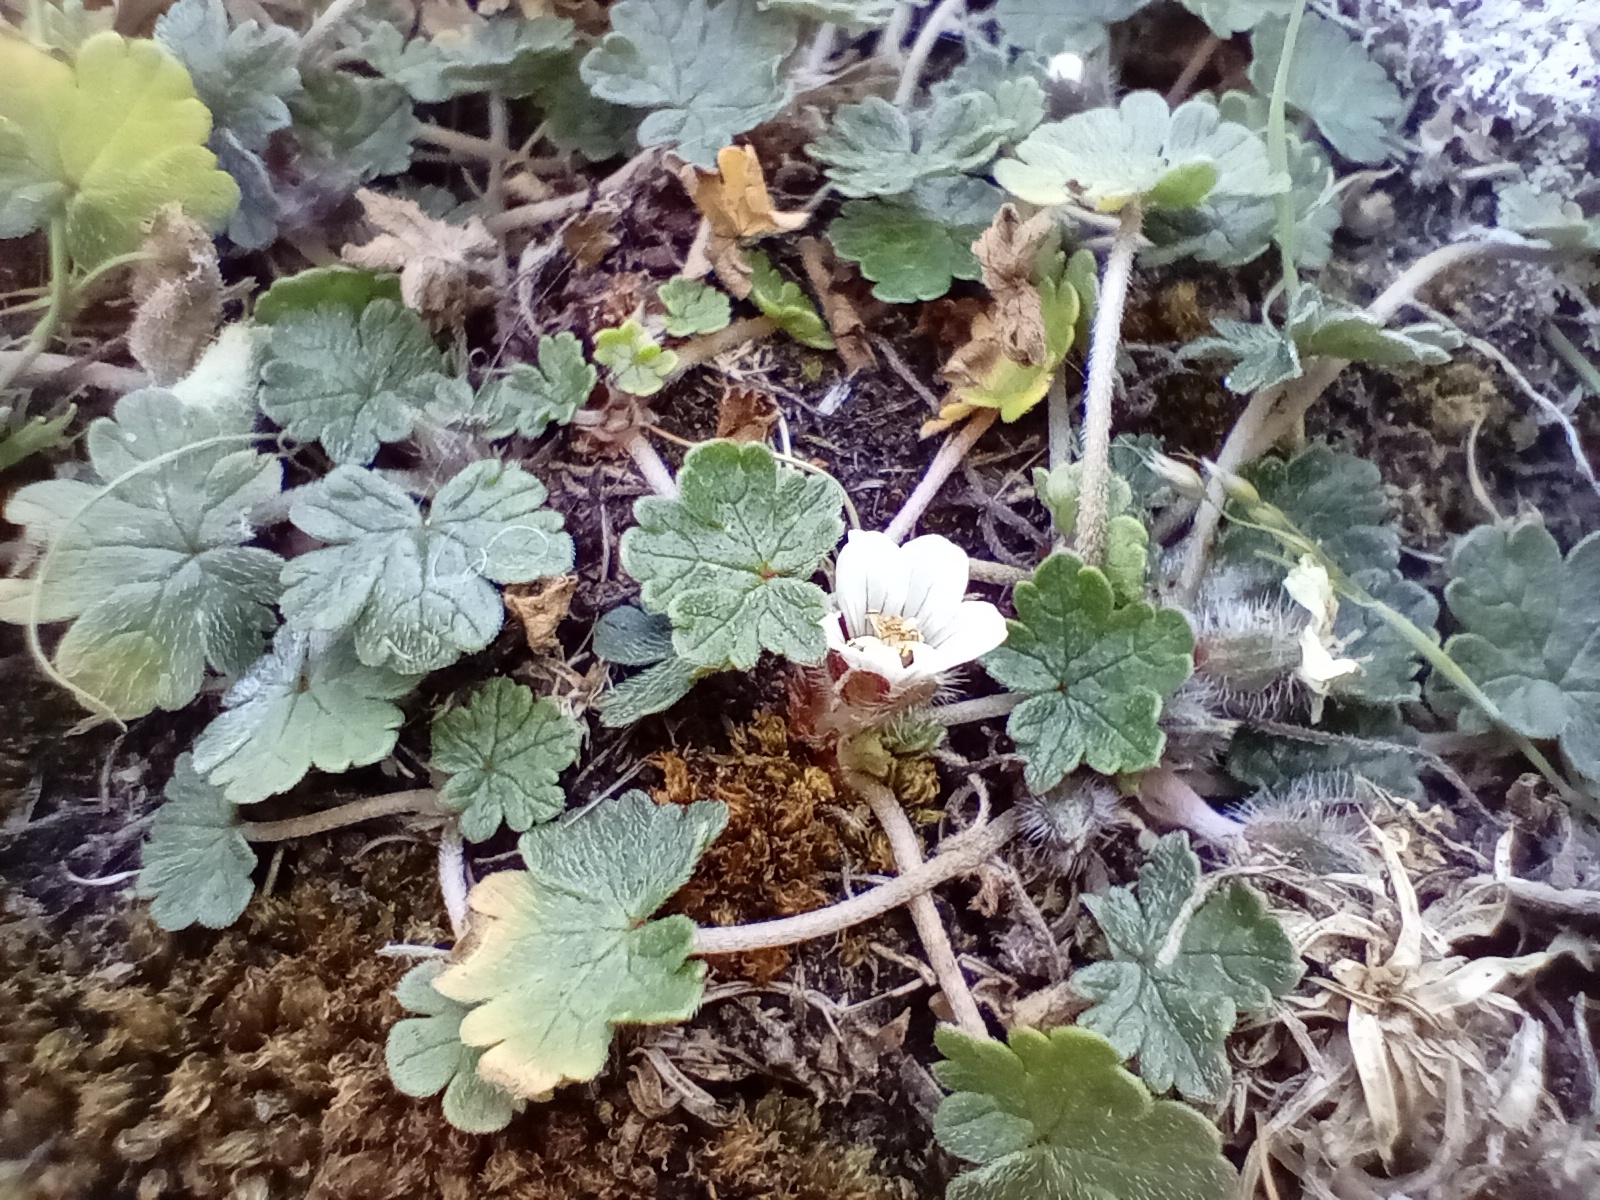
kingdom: Plantae
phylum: Tracheophyta
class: Magnoliopsida
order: Geraniales
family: Geraniaceae
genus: Geranium
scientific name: Geranium brevicaule
